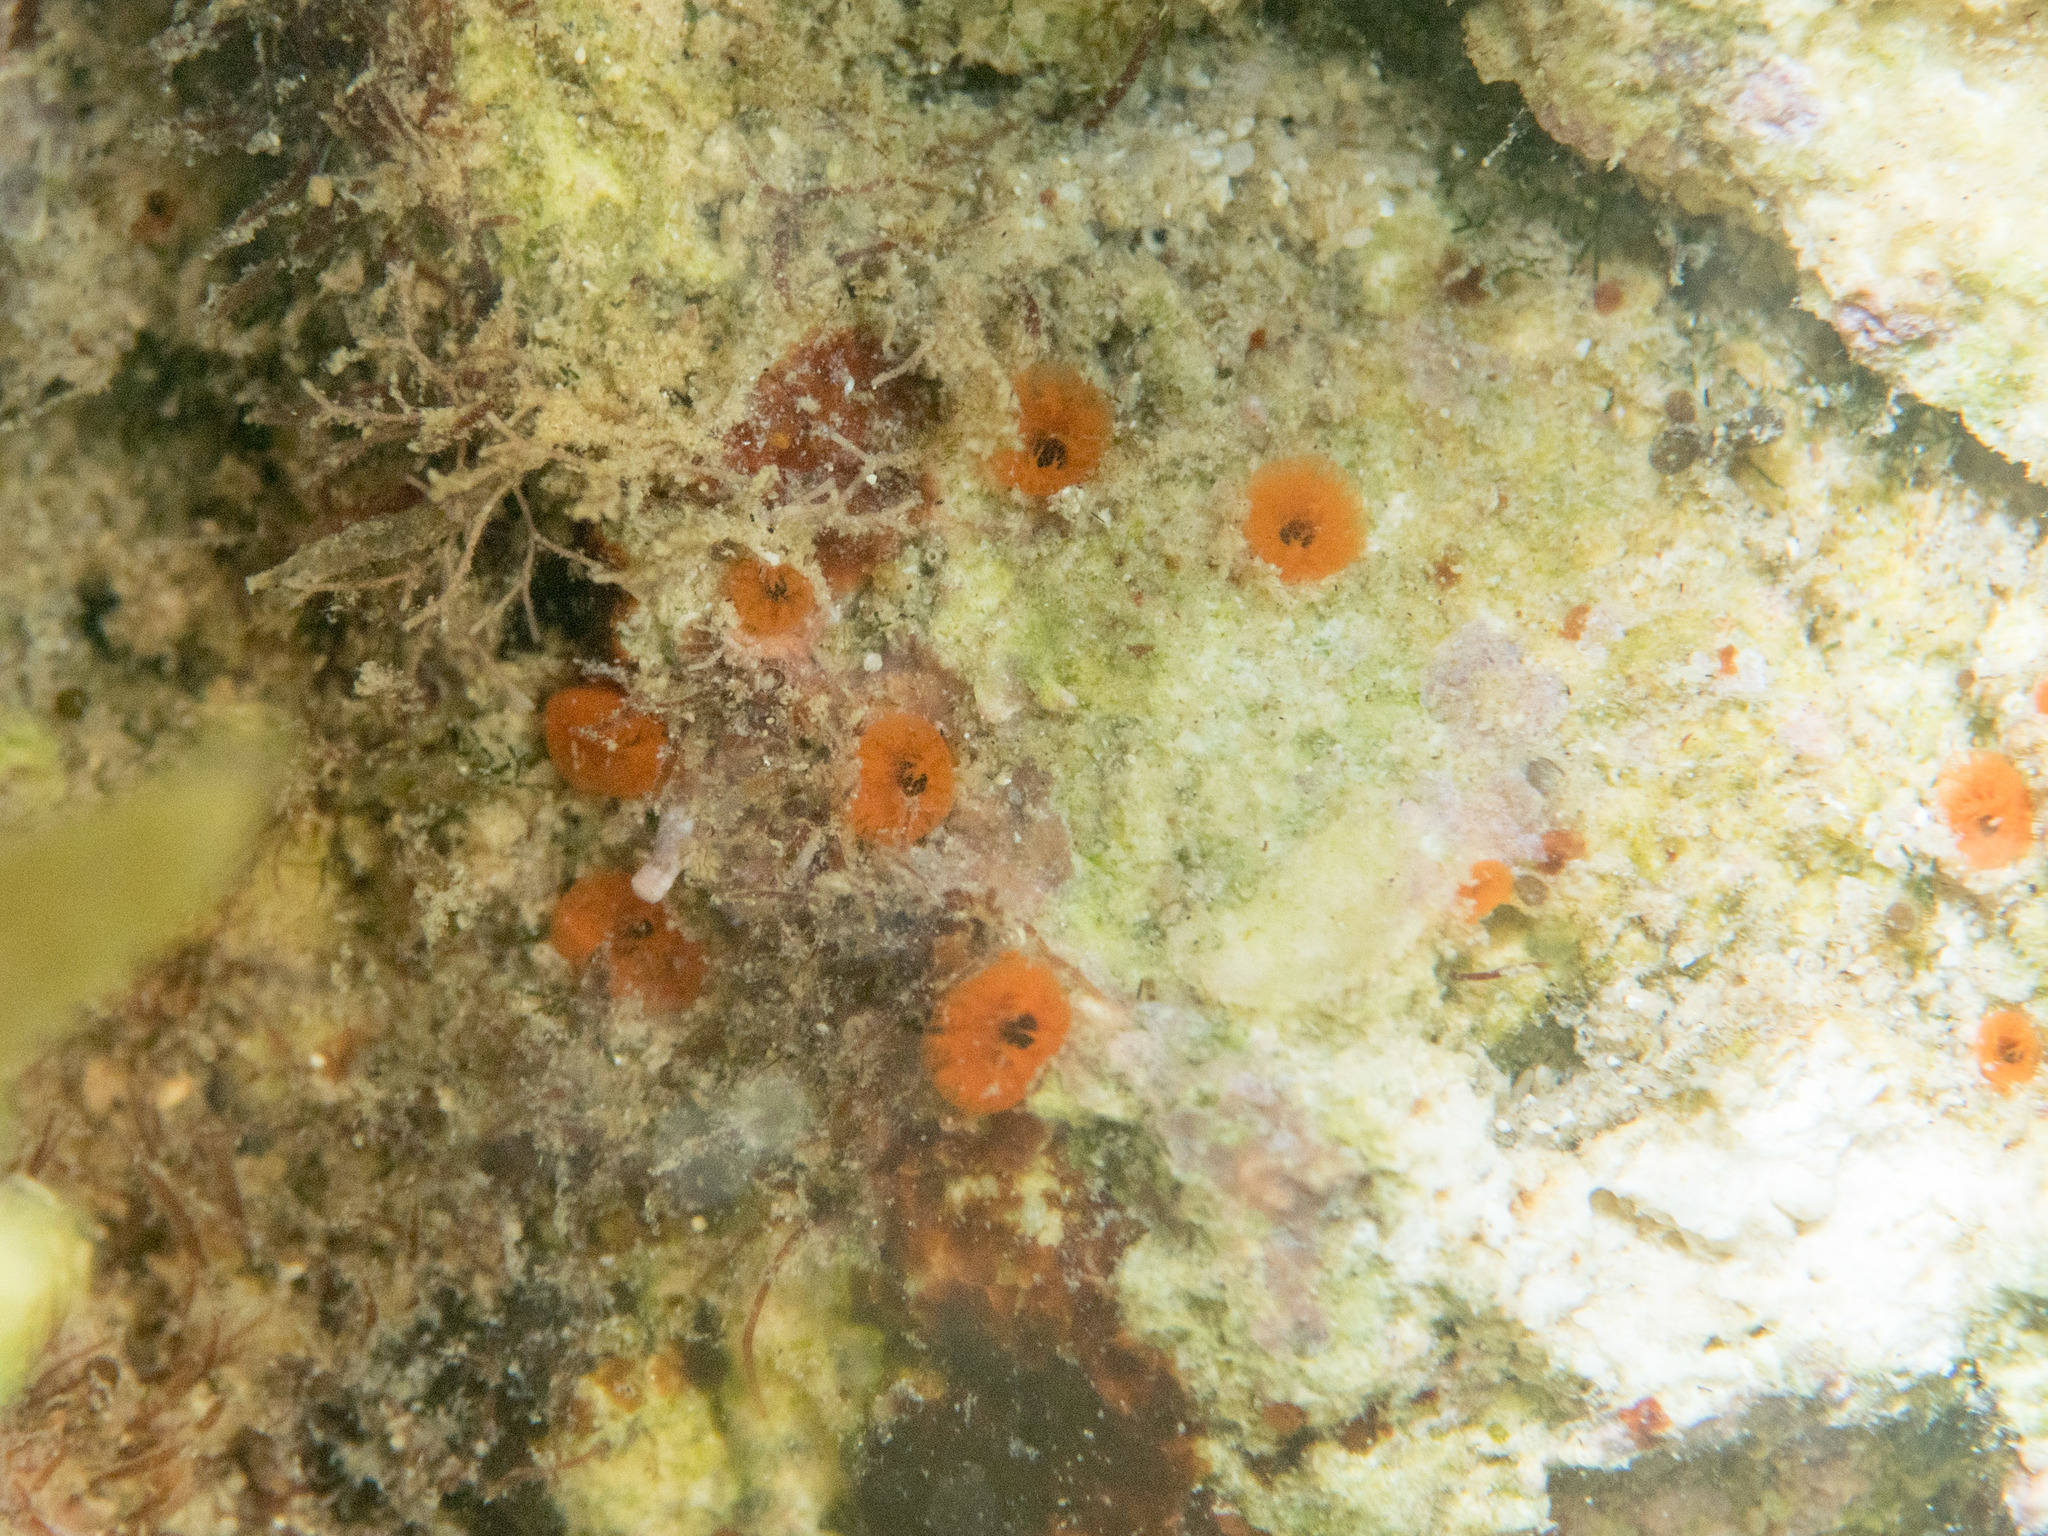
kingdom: Animalia
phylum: Porifera
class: Demospongiae
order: Clionaida
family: Clionaidae
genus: Cliona
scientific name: Cliona rhodensis
